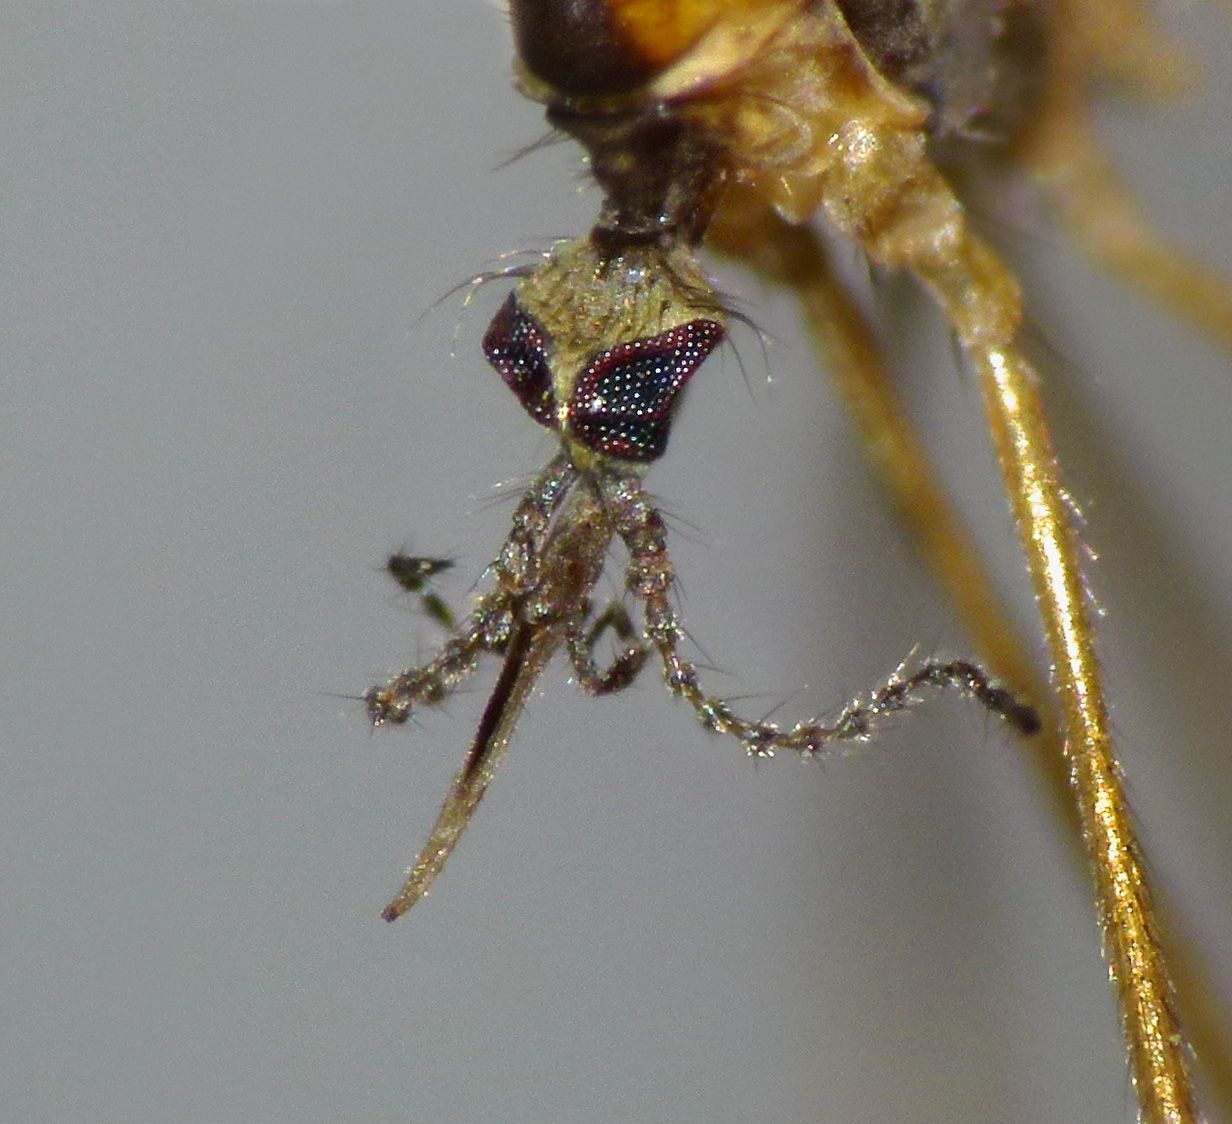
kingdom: Animalia
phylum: Arthropoda
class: Insecta
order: Diptera
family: Limoniidae
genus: Dicranomyia
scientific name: Dicranomyia huttoni
